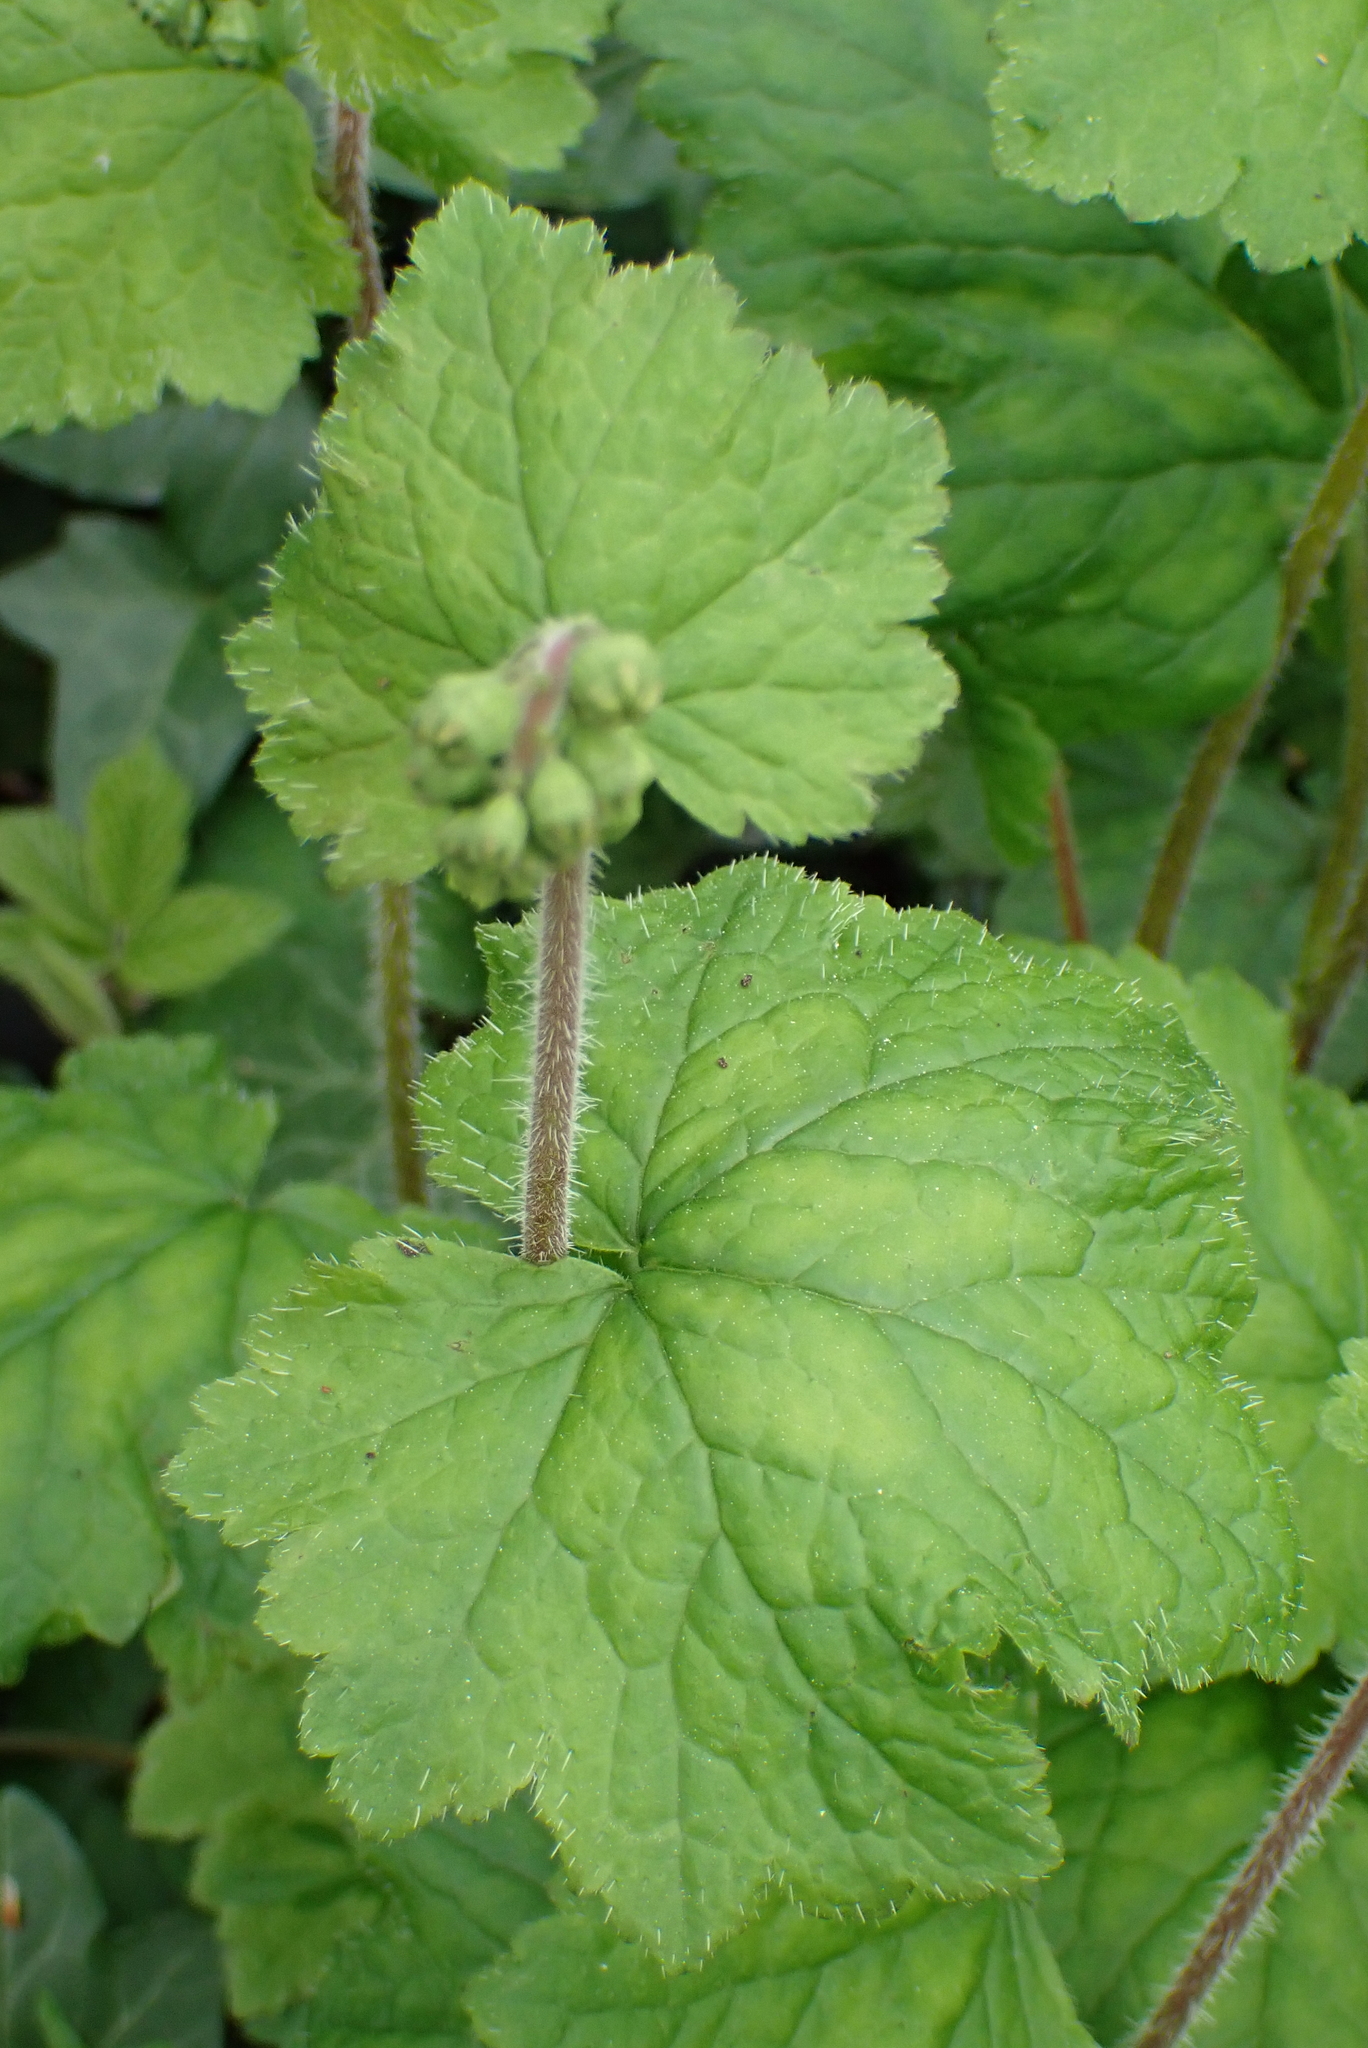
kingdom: Plantae
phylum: Tracheophyta
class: Magnoliopsida
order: Saxifragales
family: Saxifragaceae
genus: Tellima
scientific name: Tellima grandiflora
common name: Fringecups
